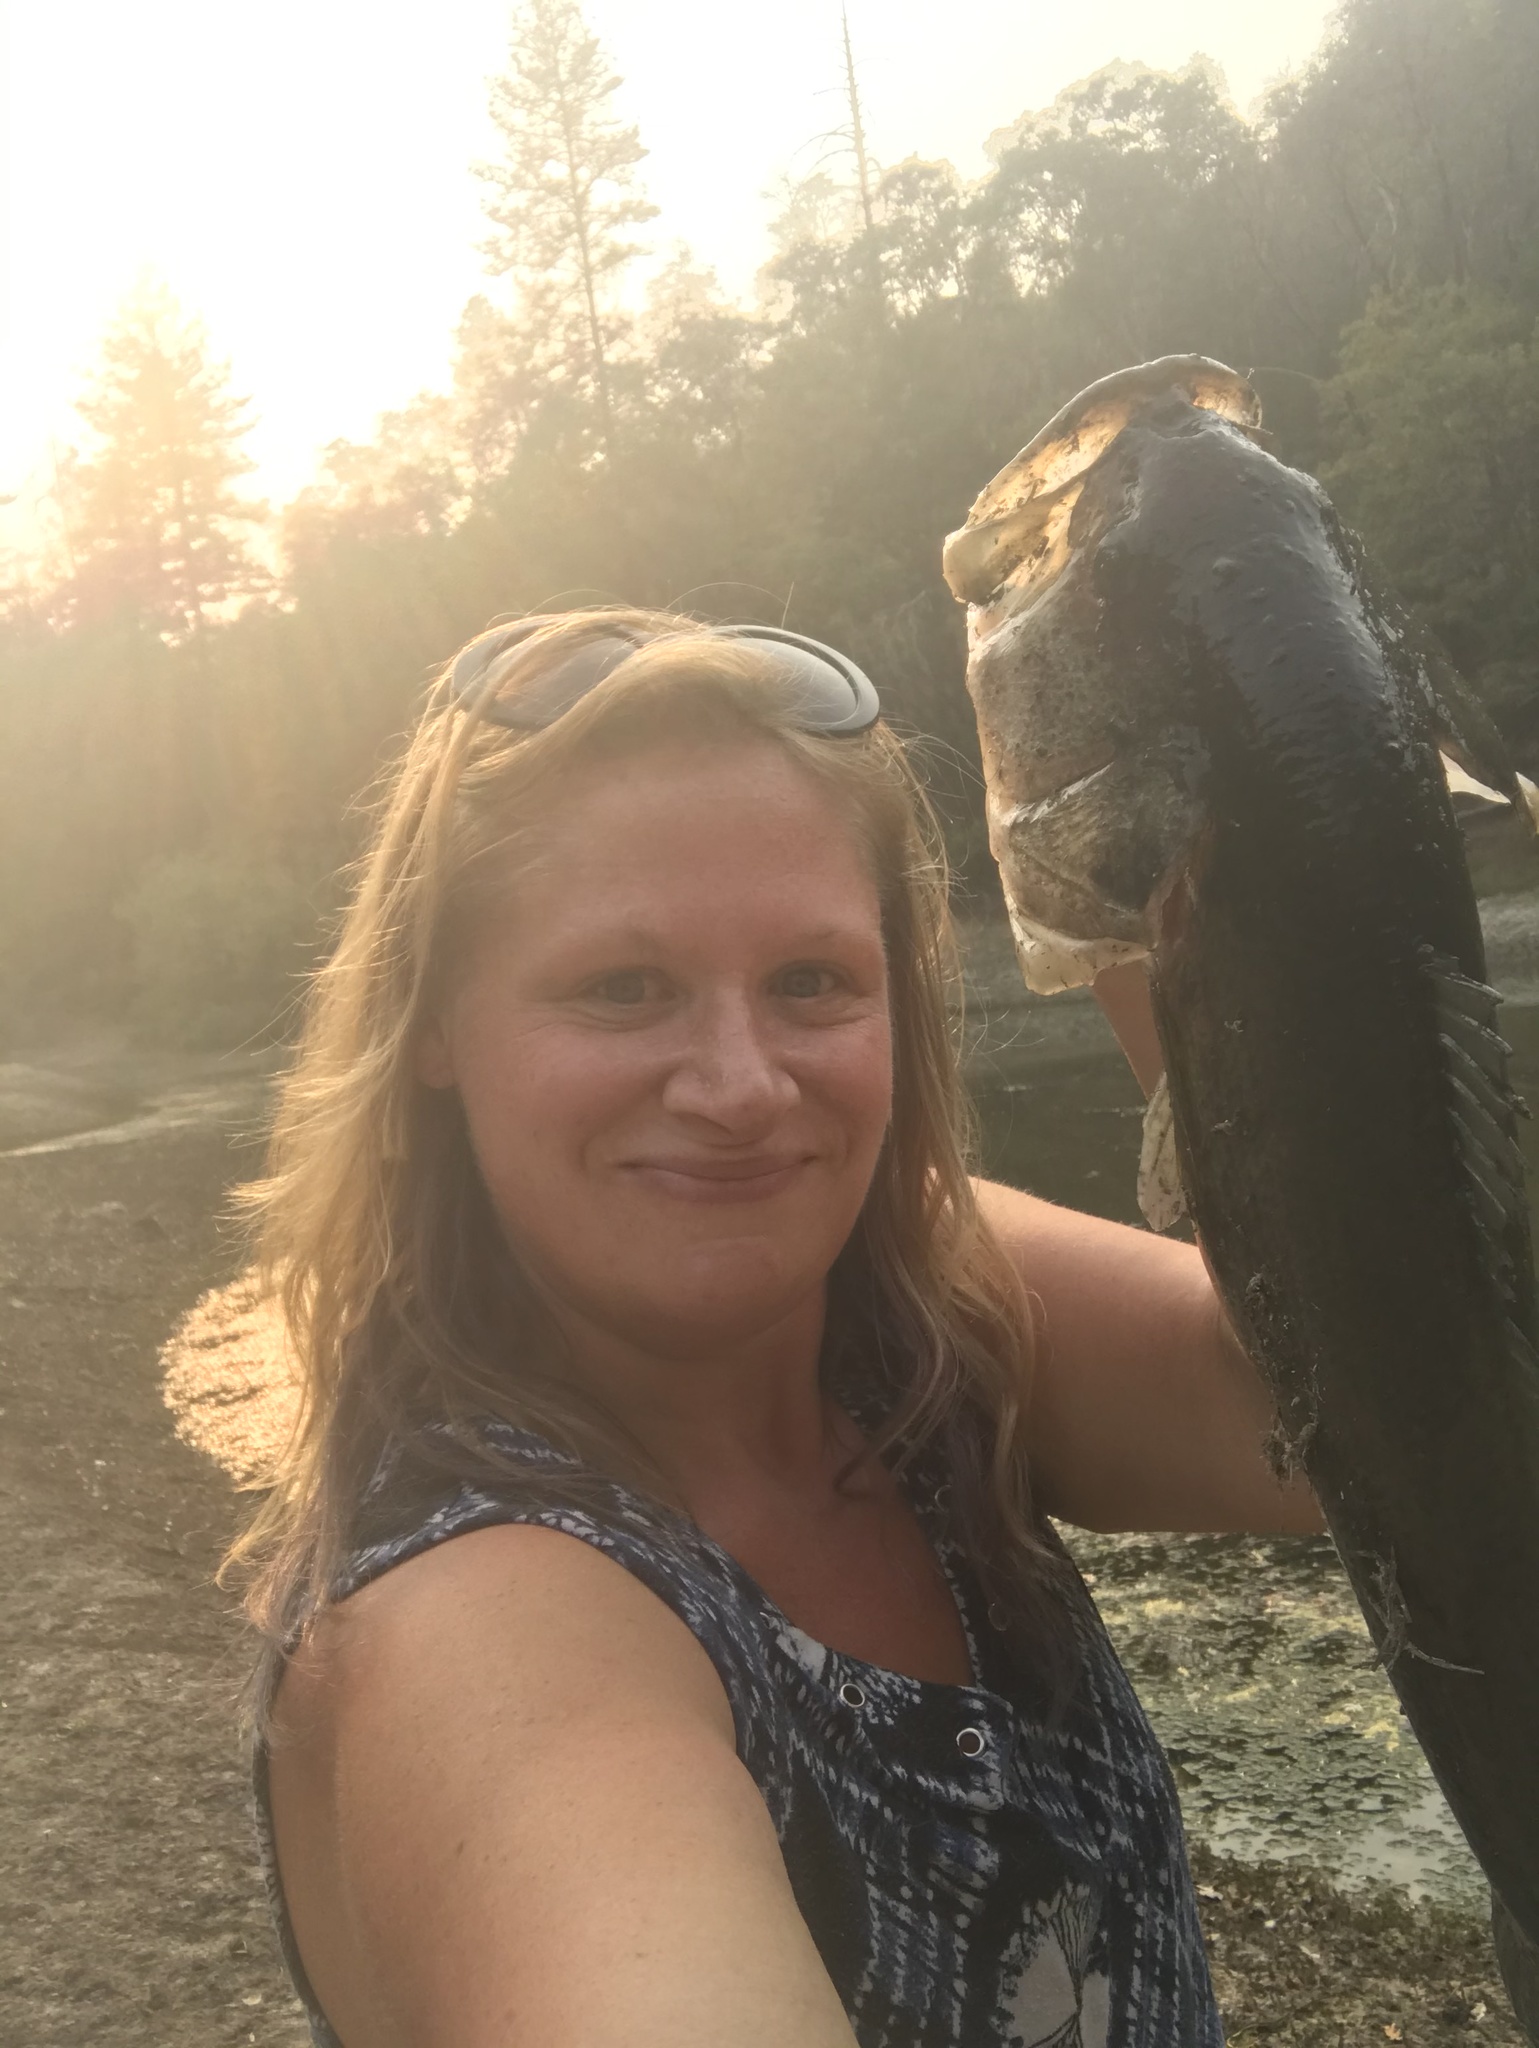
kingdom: Animalia
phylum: Chordata
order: Perciformes
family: Centrarchidae
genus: Micropterus
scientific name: Micropterus
